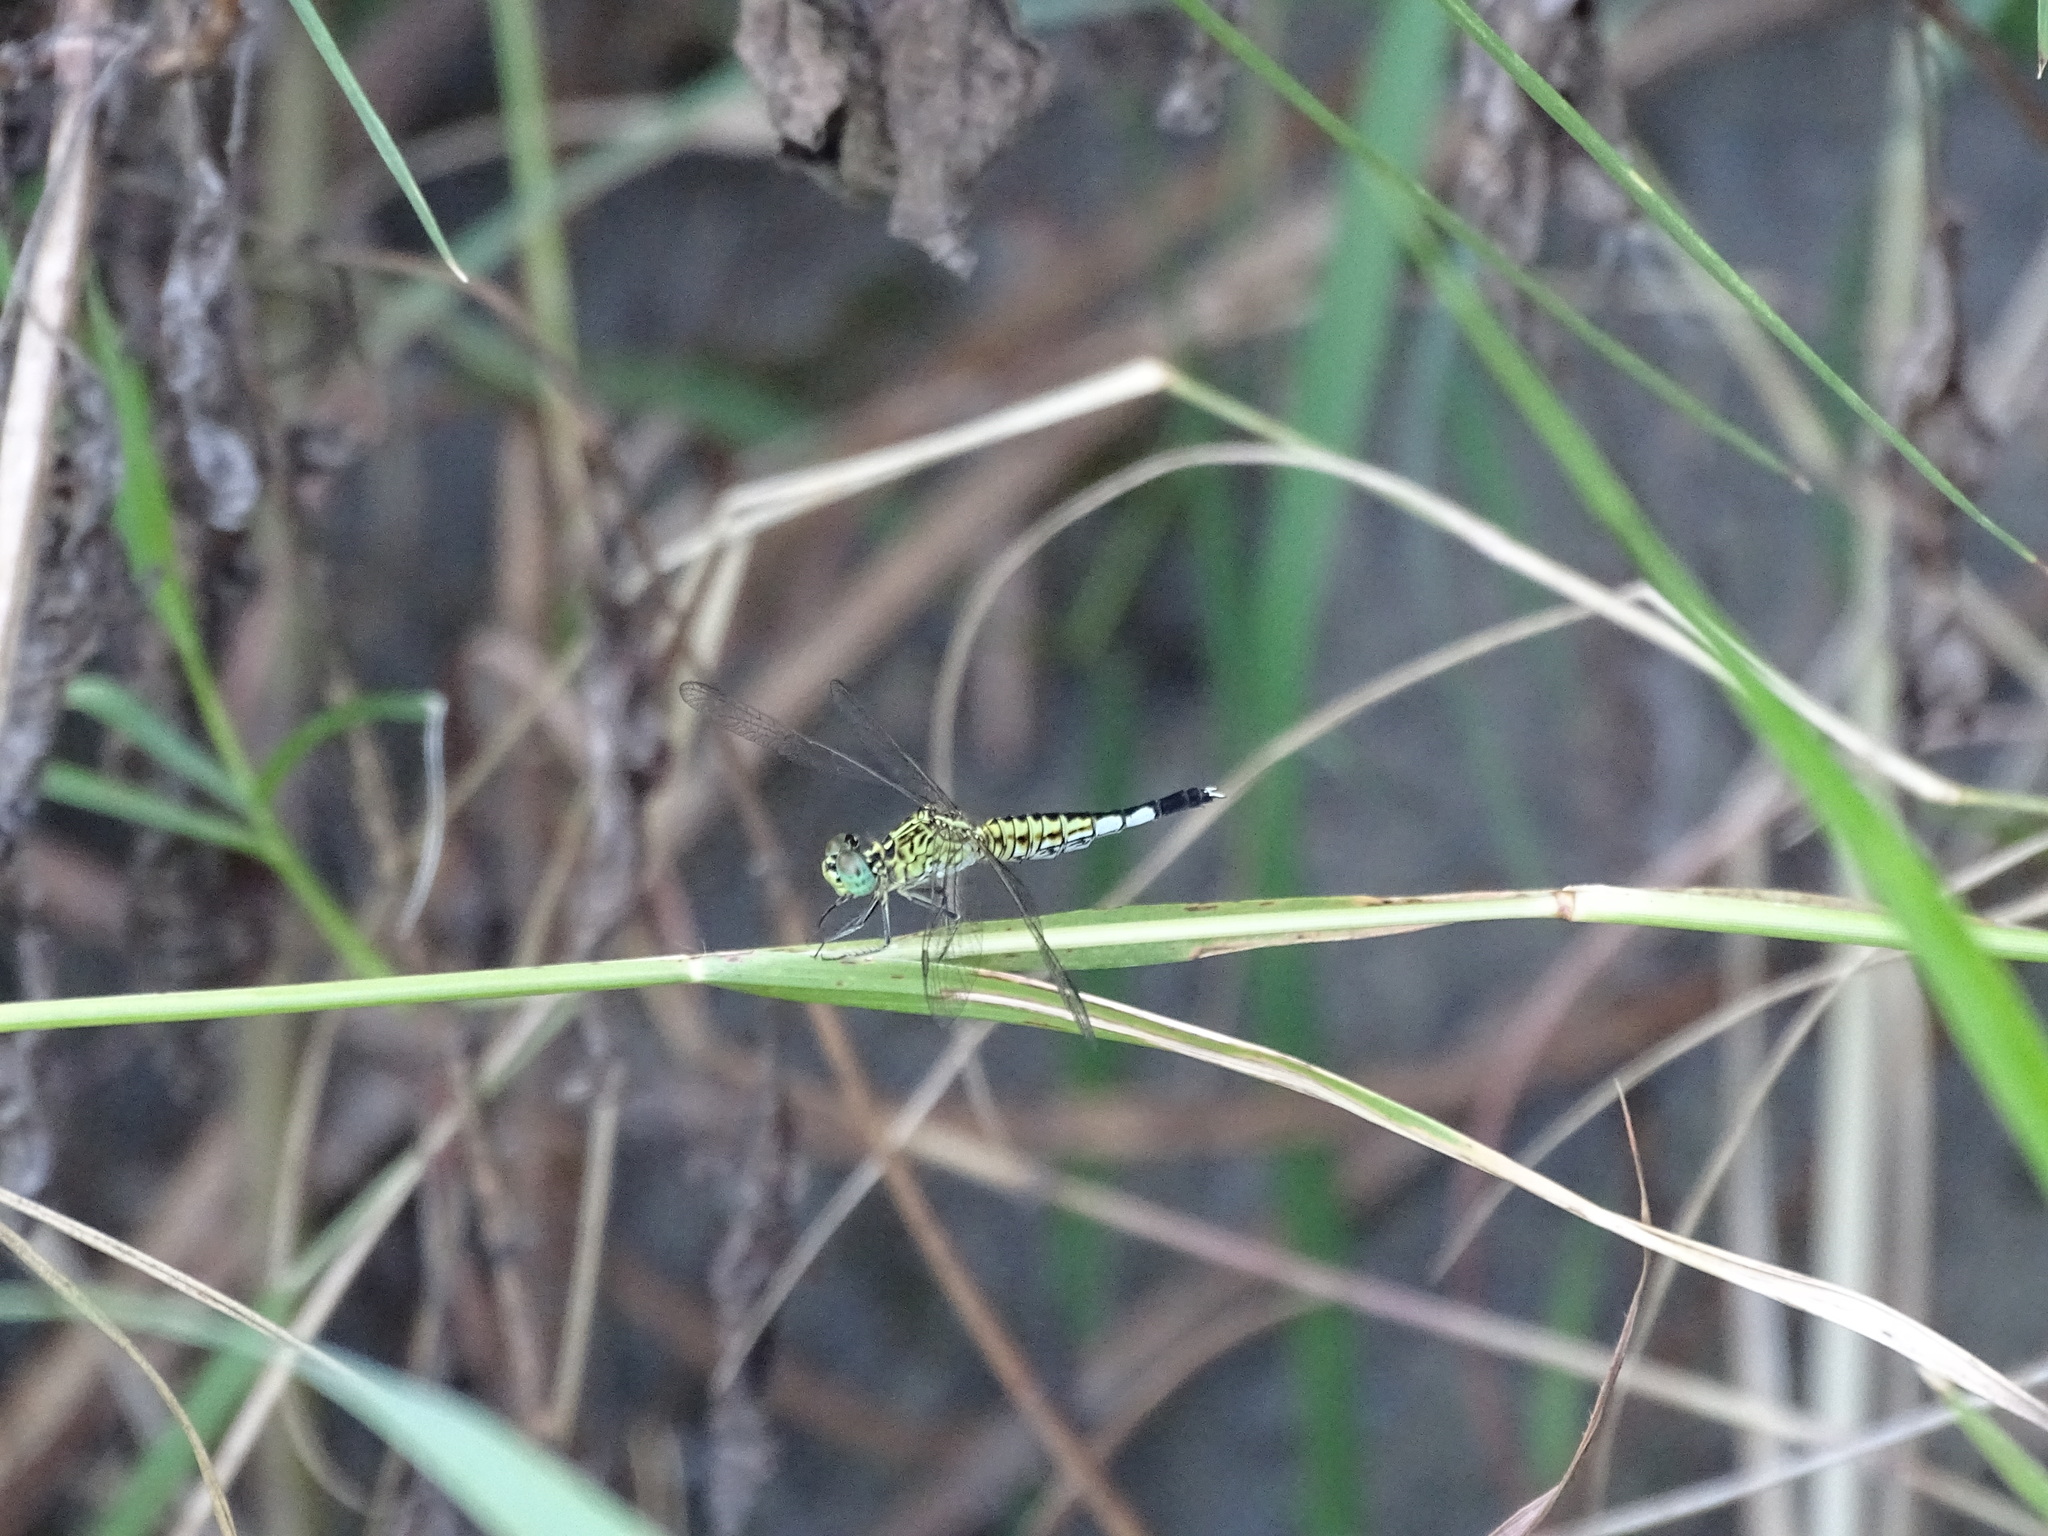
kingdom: Animalia
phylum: Arthropoda
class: Insecta
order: Odonata
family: Libellulidae
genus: Acisoma
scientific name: Acisoma panorpoides
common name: Asian pintail
